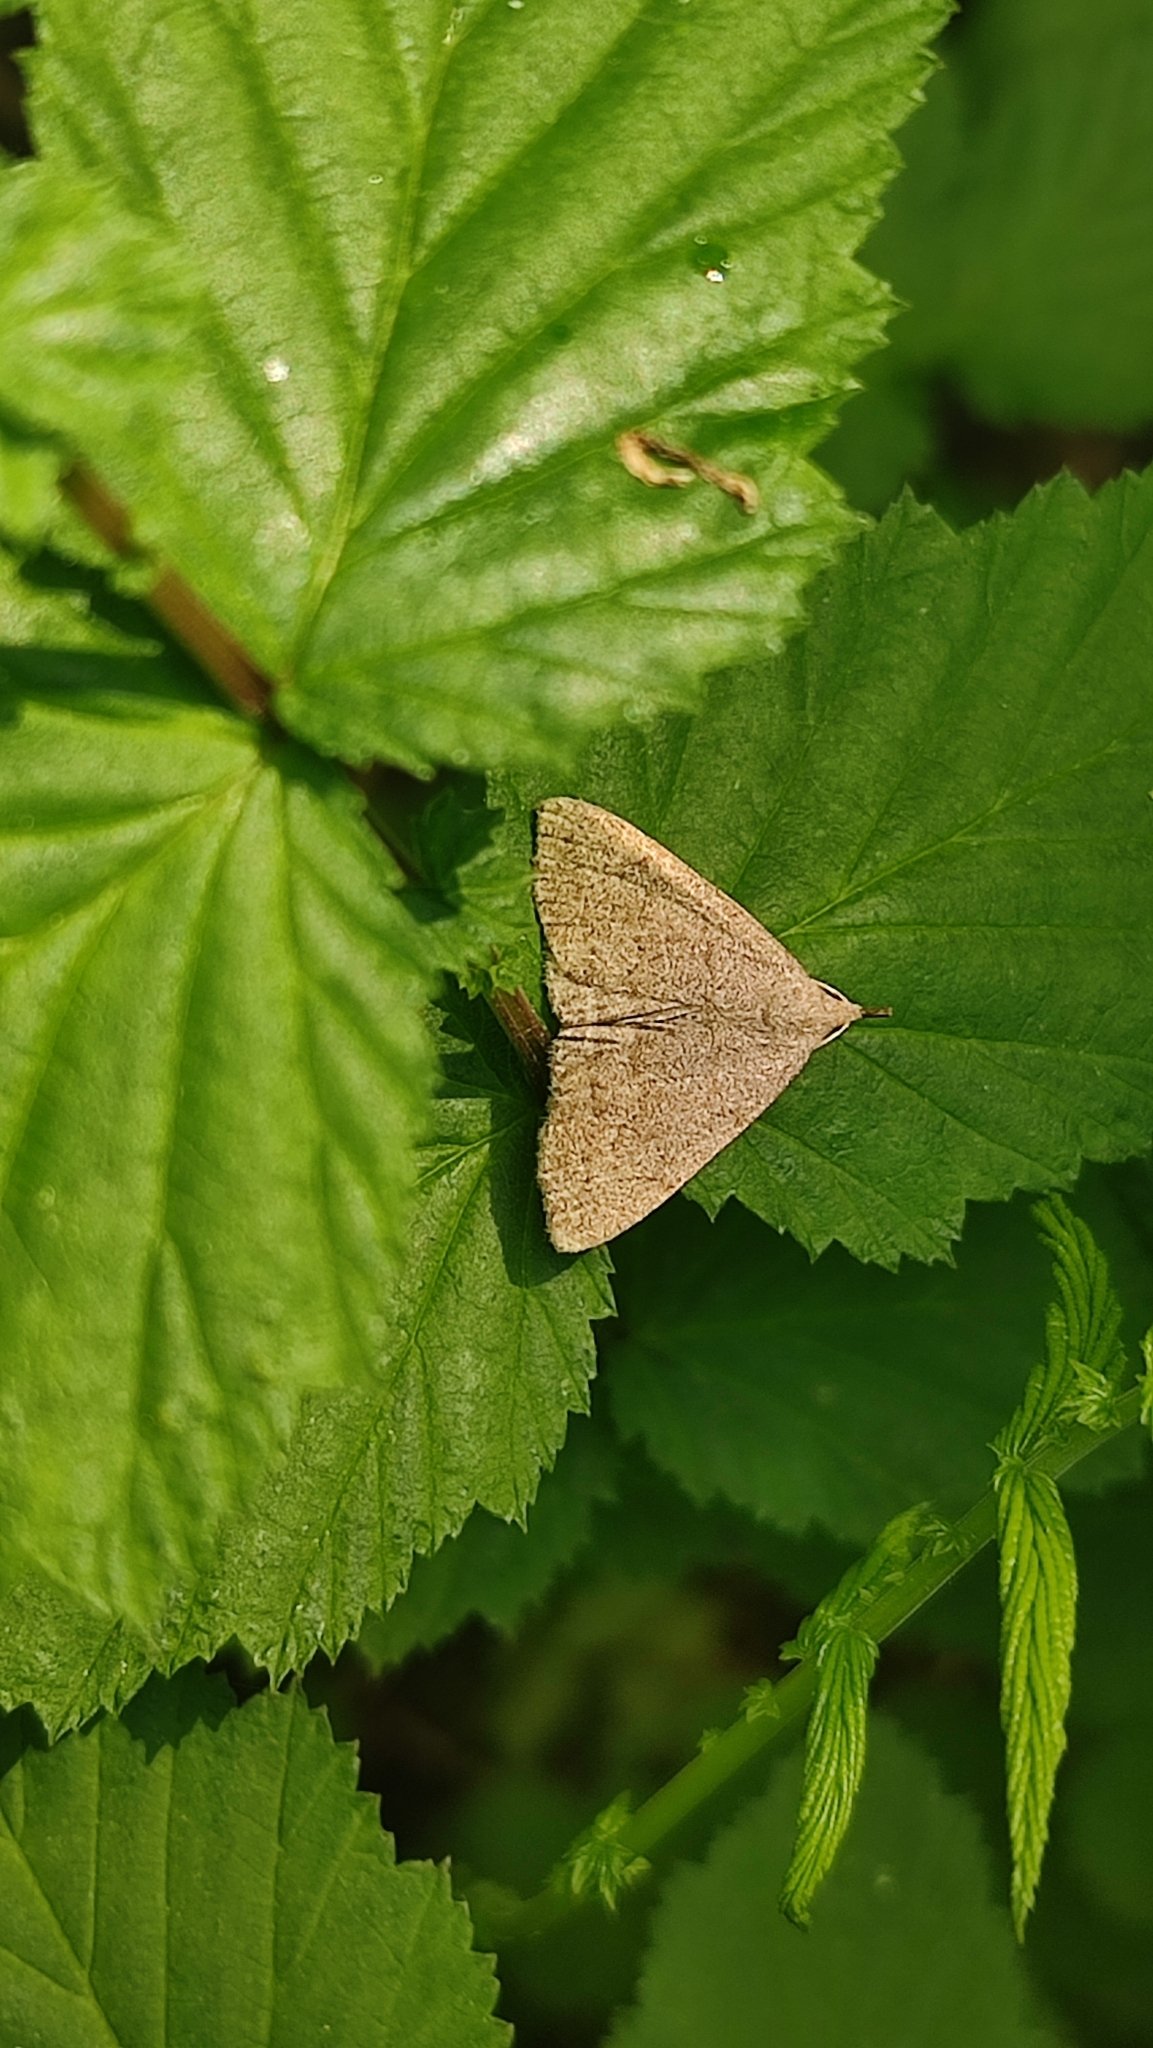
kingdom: Animalia
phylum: Arthropoda
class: Insecta
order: Lepidoptera
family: Erebidae
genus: Pechipogo
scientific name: Pechipogo strigilata
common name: Common fan-foot
